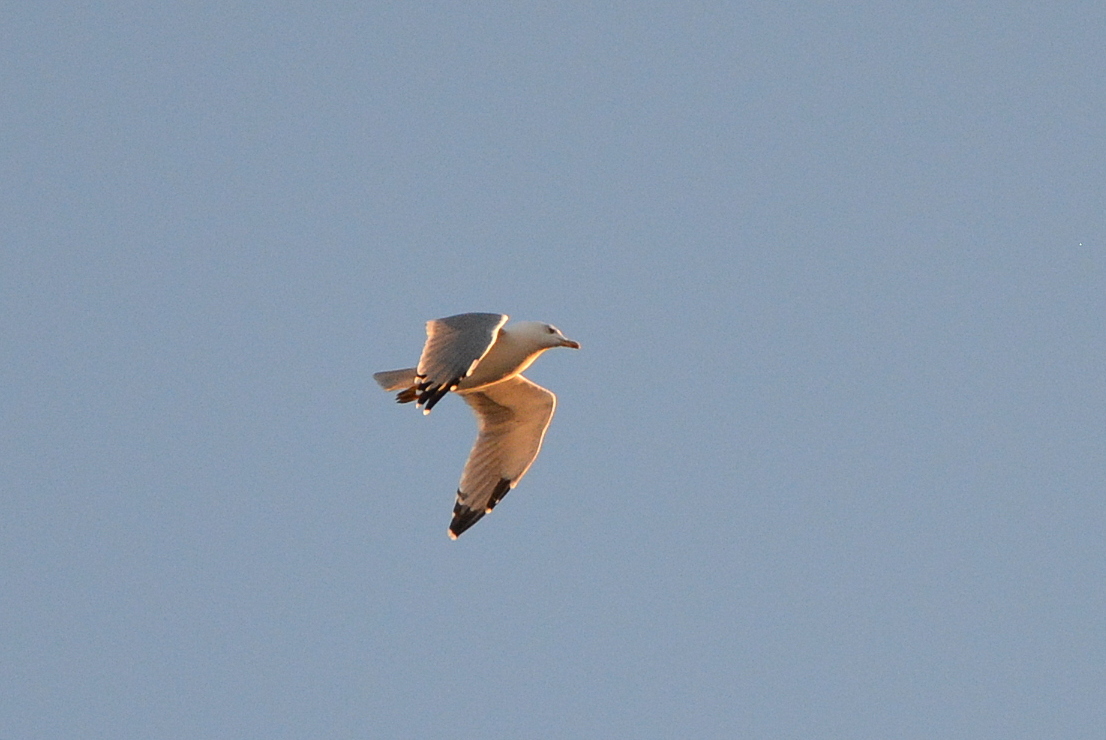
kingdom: Animalia
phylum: Chordata
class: Aves
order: Charadriiformes
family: Laridae
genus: Larus
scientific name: Larus michahellis
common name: Yellow-legged gull
